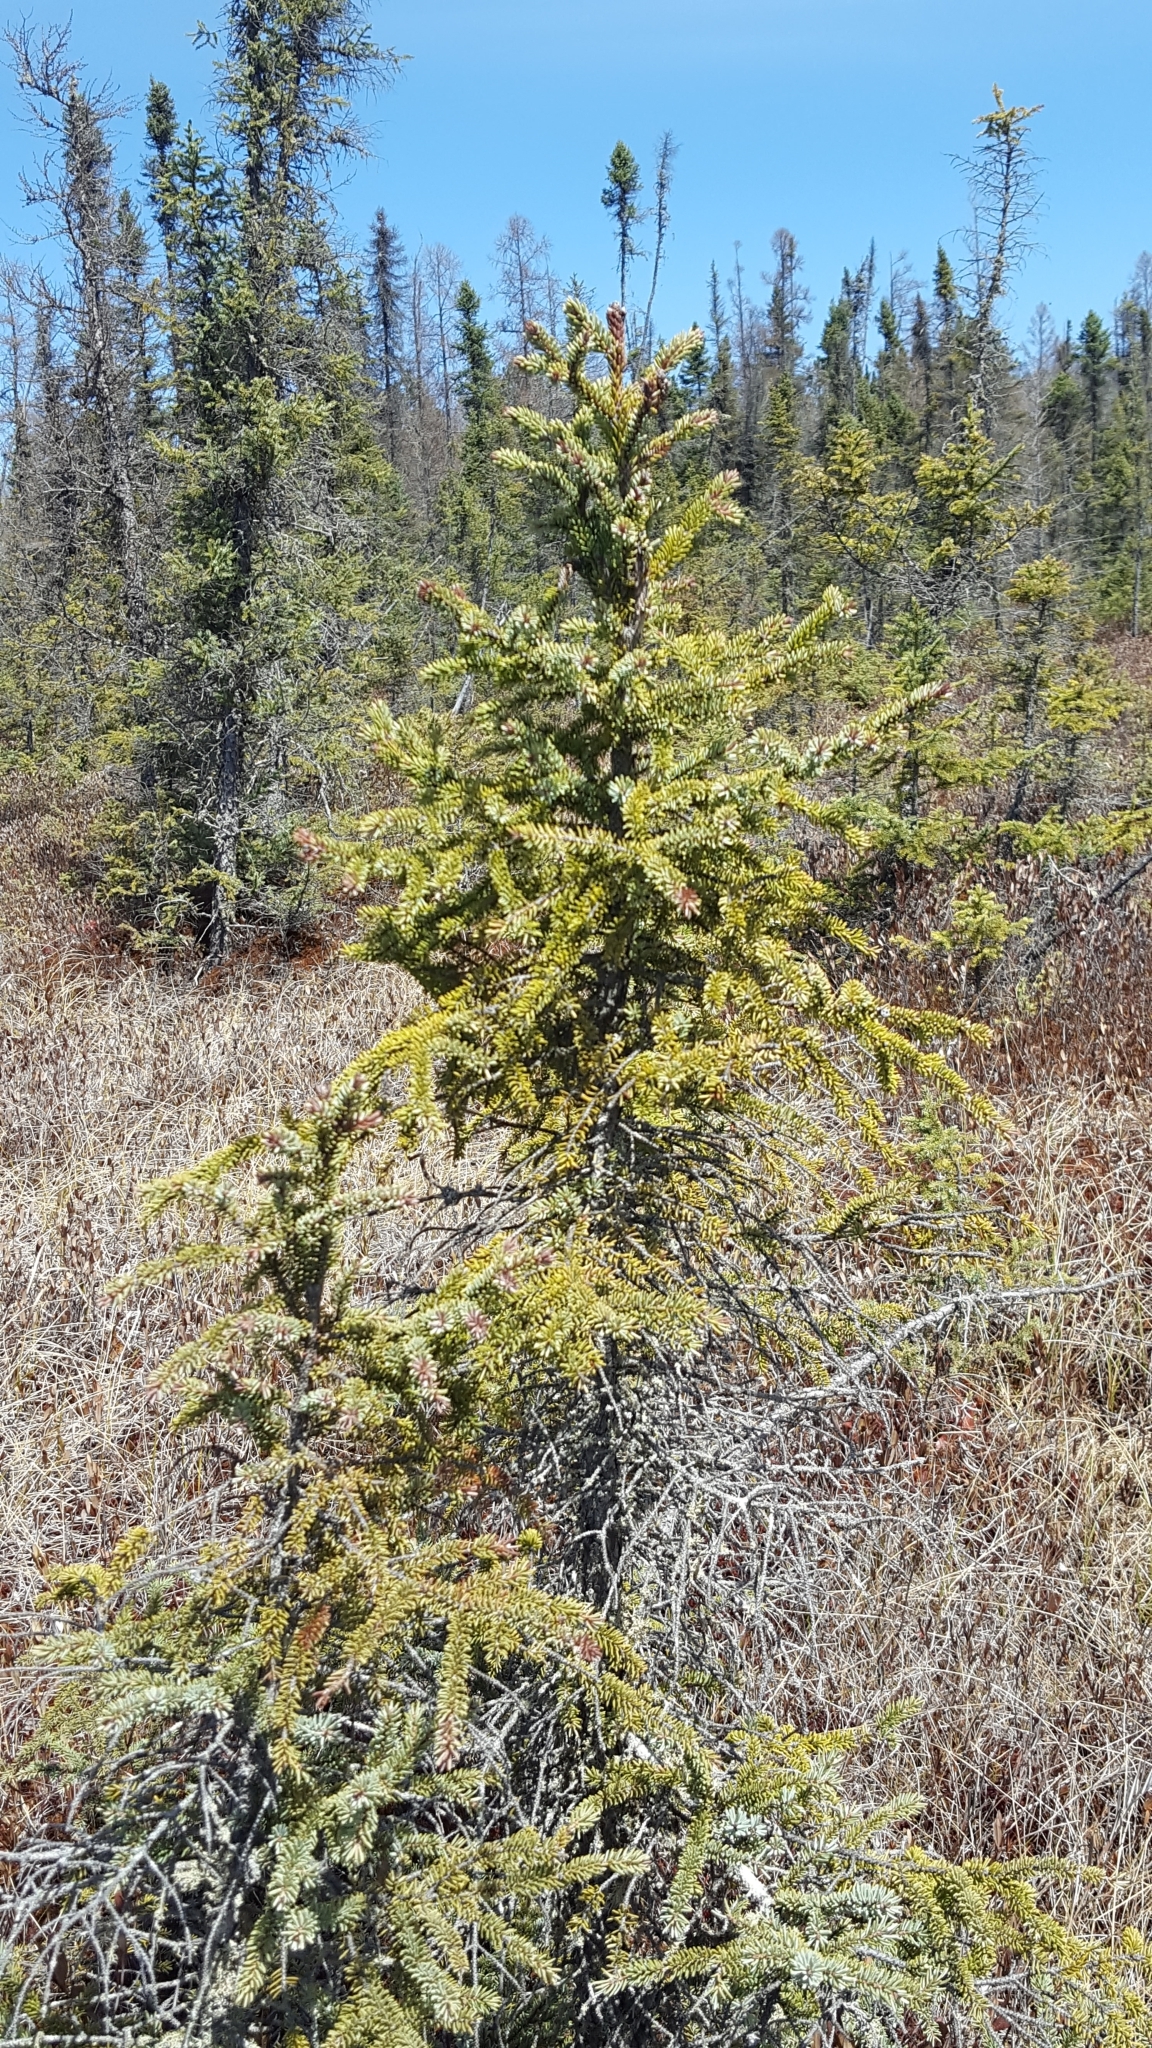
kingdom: Plantae
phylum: Tracheophyta
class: Pinopsida
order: Pinales
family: Pinaceae
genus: Picea
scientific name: Picea mariana
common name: Black spruce
